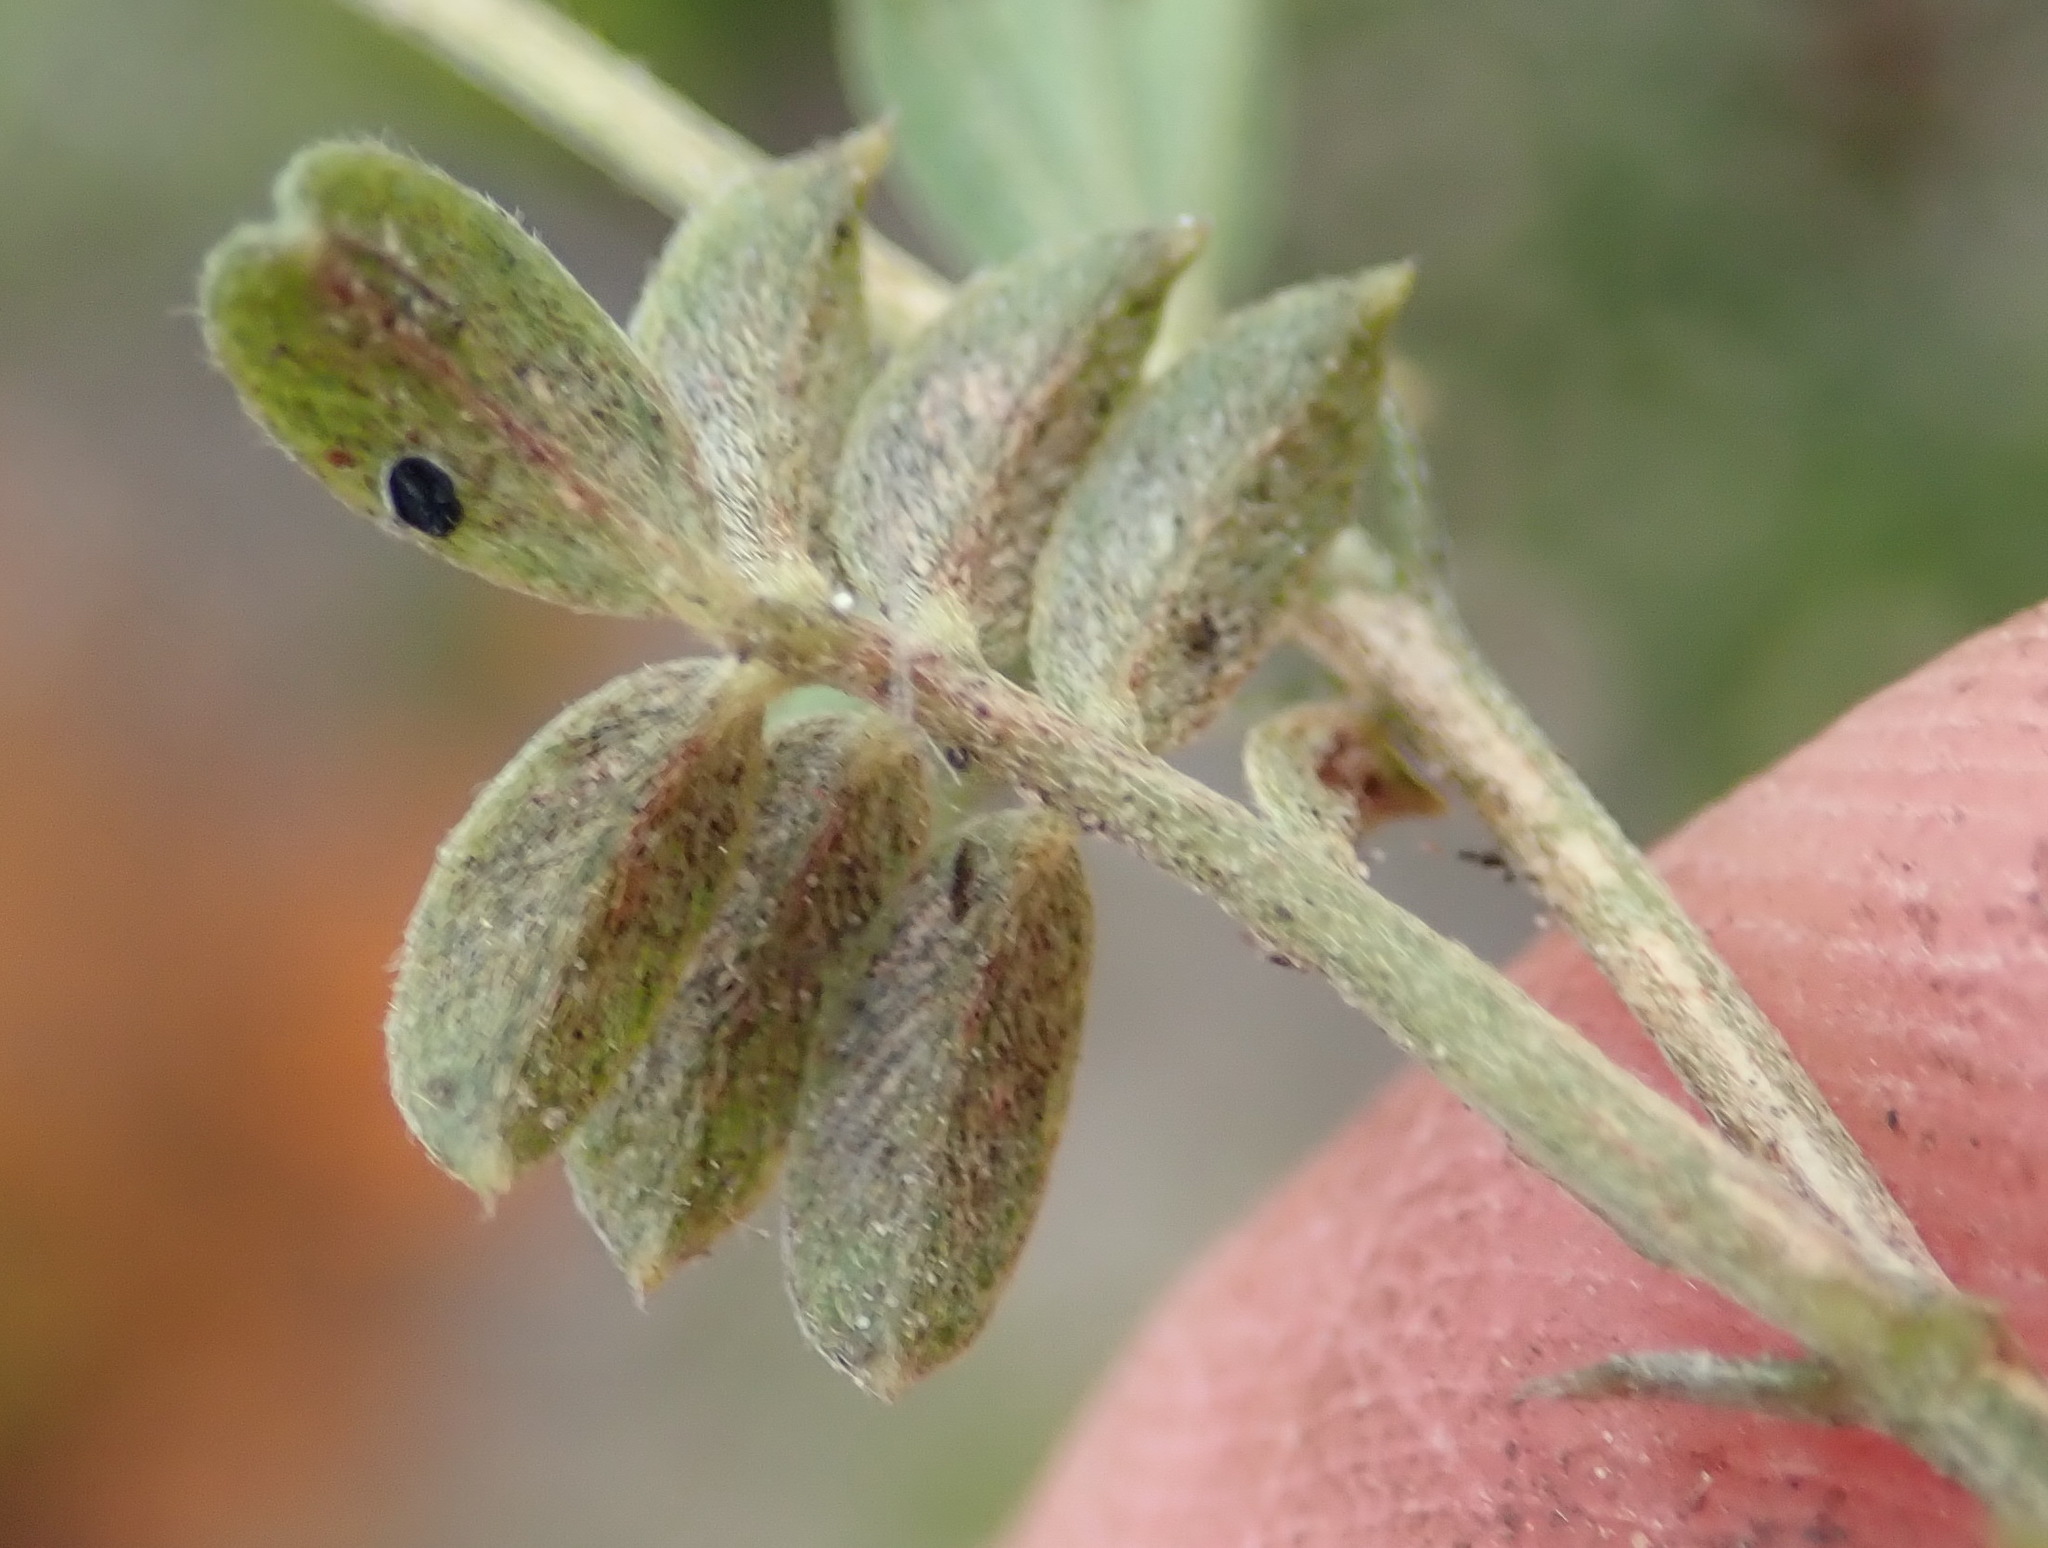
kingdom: Plantae
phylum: Tracheophyta
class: Magnoliopsida
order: Fabales
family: Fabaceae
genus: Tephrosia
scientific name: Tephrosia capensis
